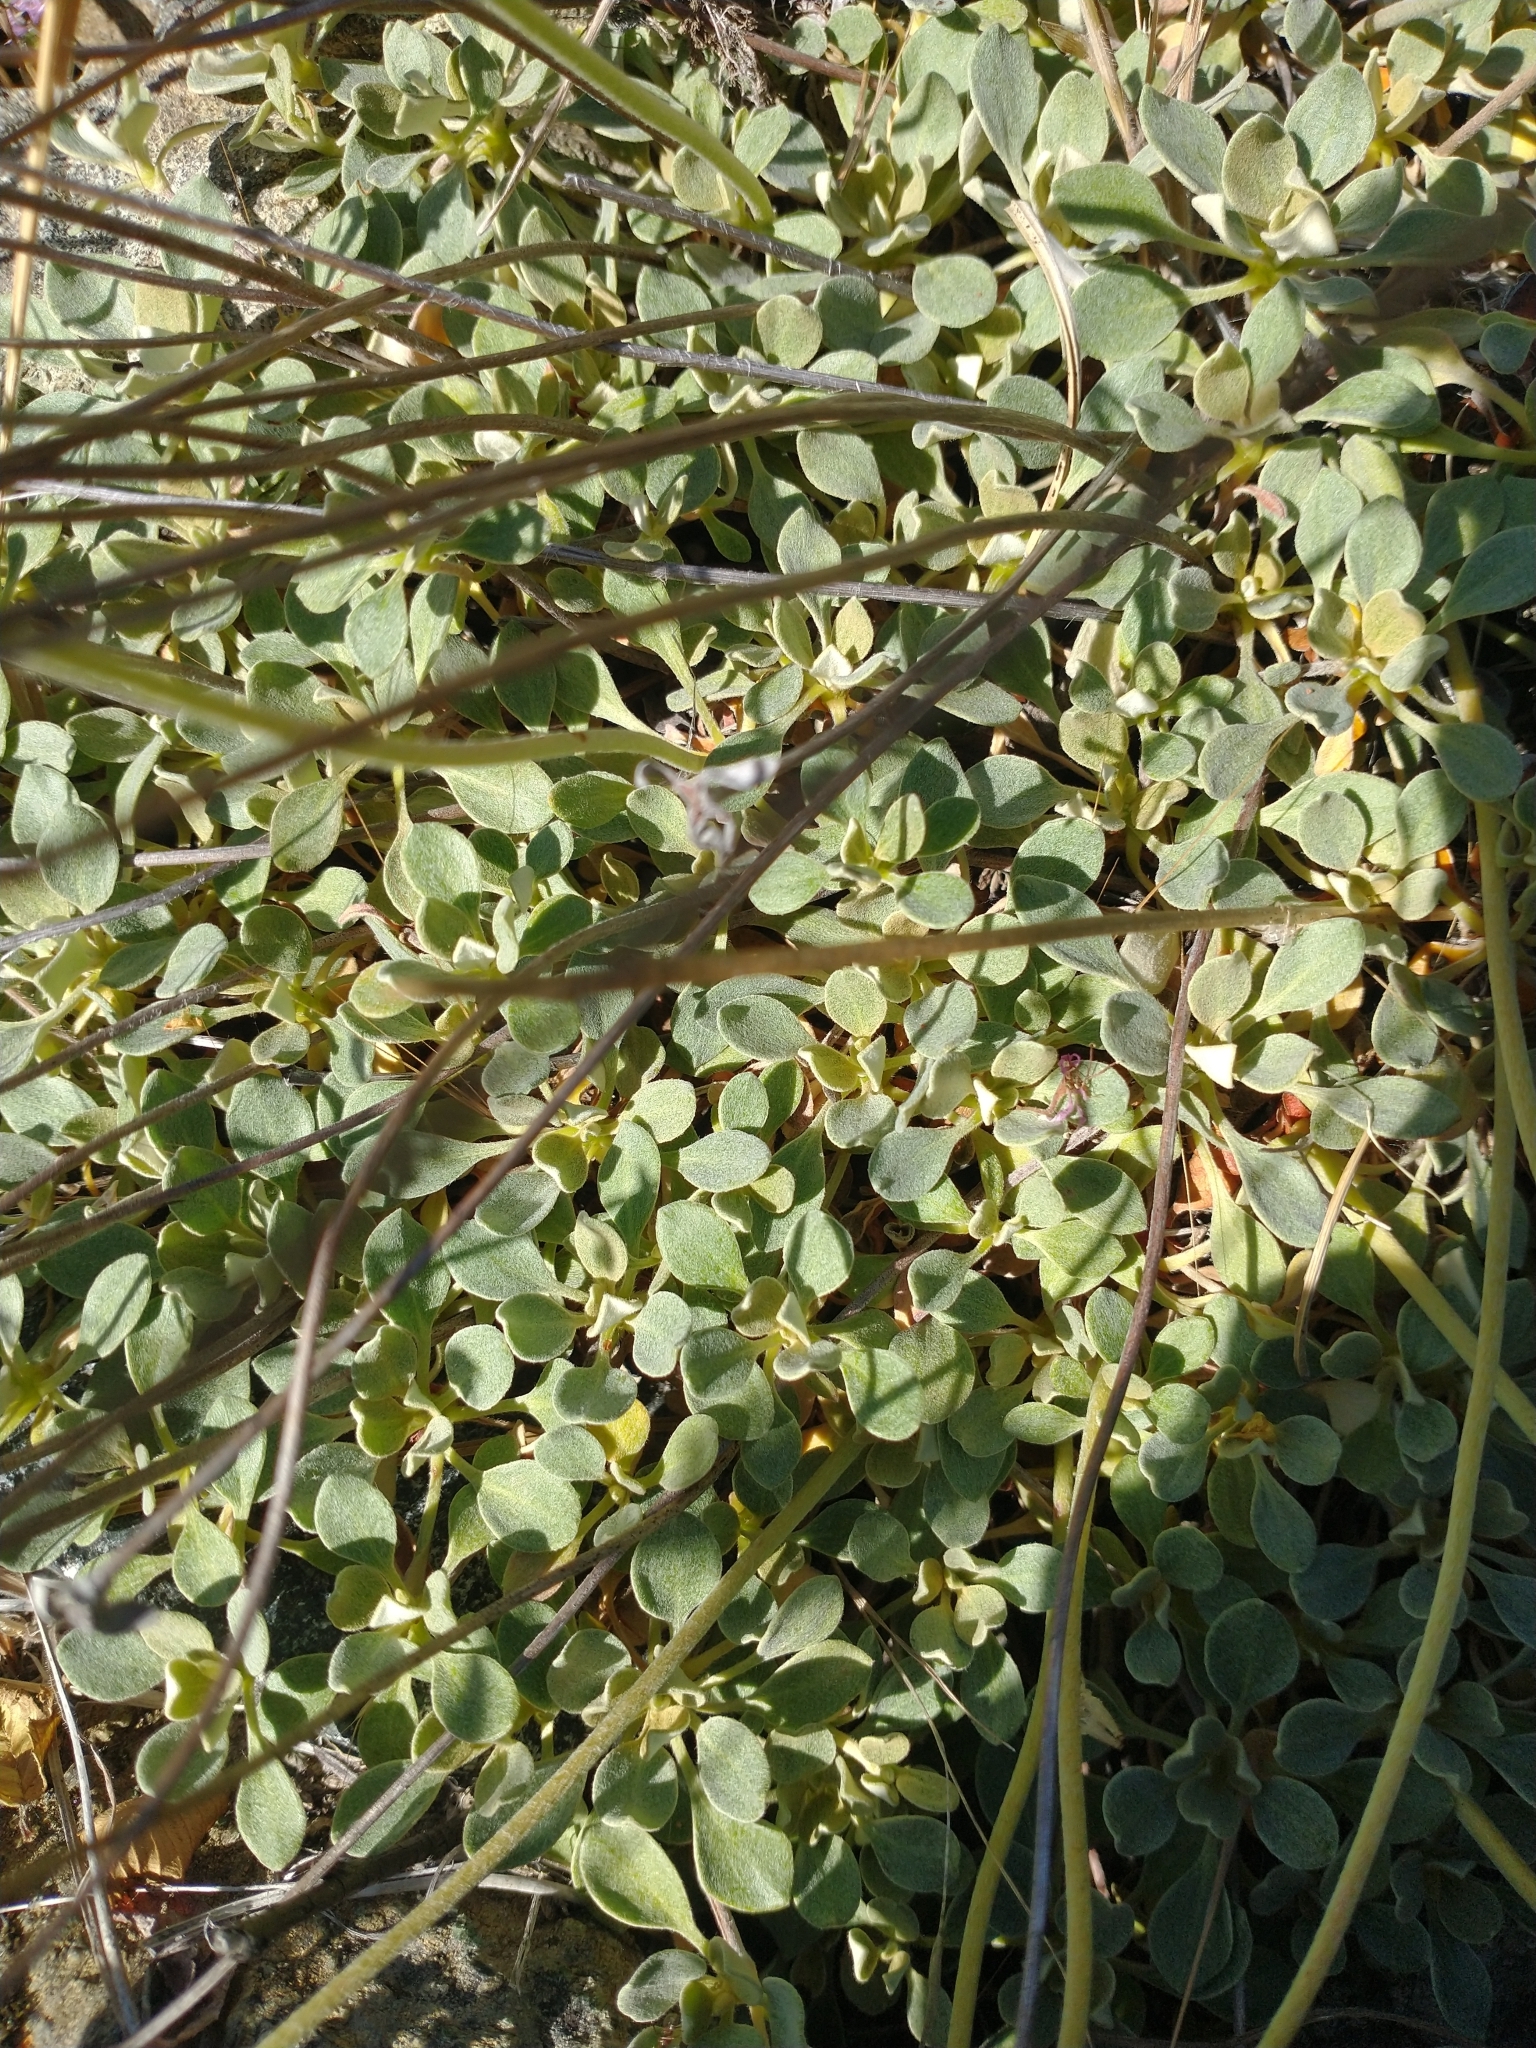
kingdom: Plantae
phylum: Tracheophyta
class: Magnoliopsida
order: Caryophyllales
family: Polygonaceae
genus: Eriogonum
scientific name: Eriogonum ternatum
